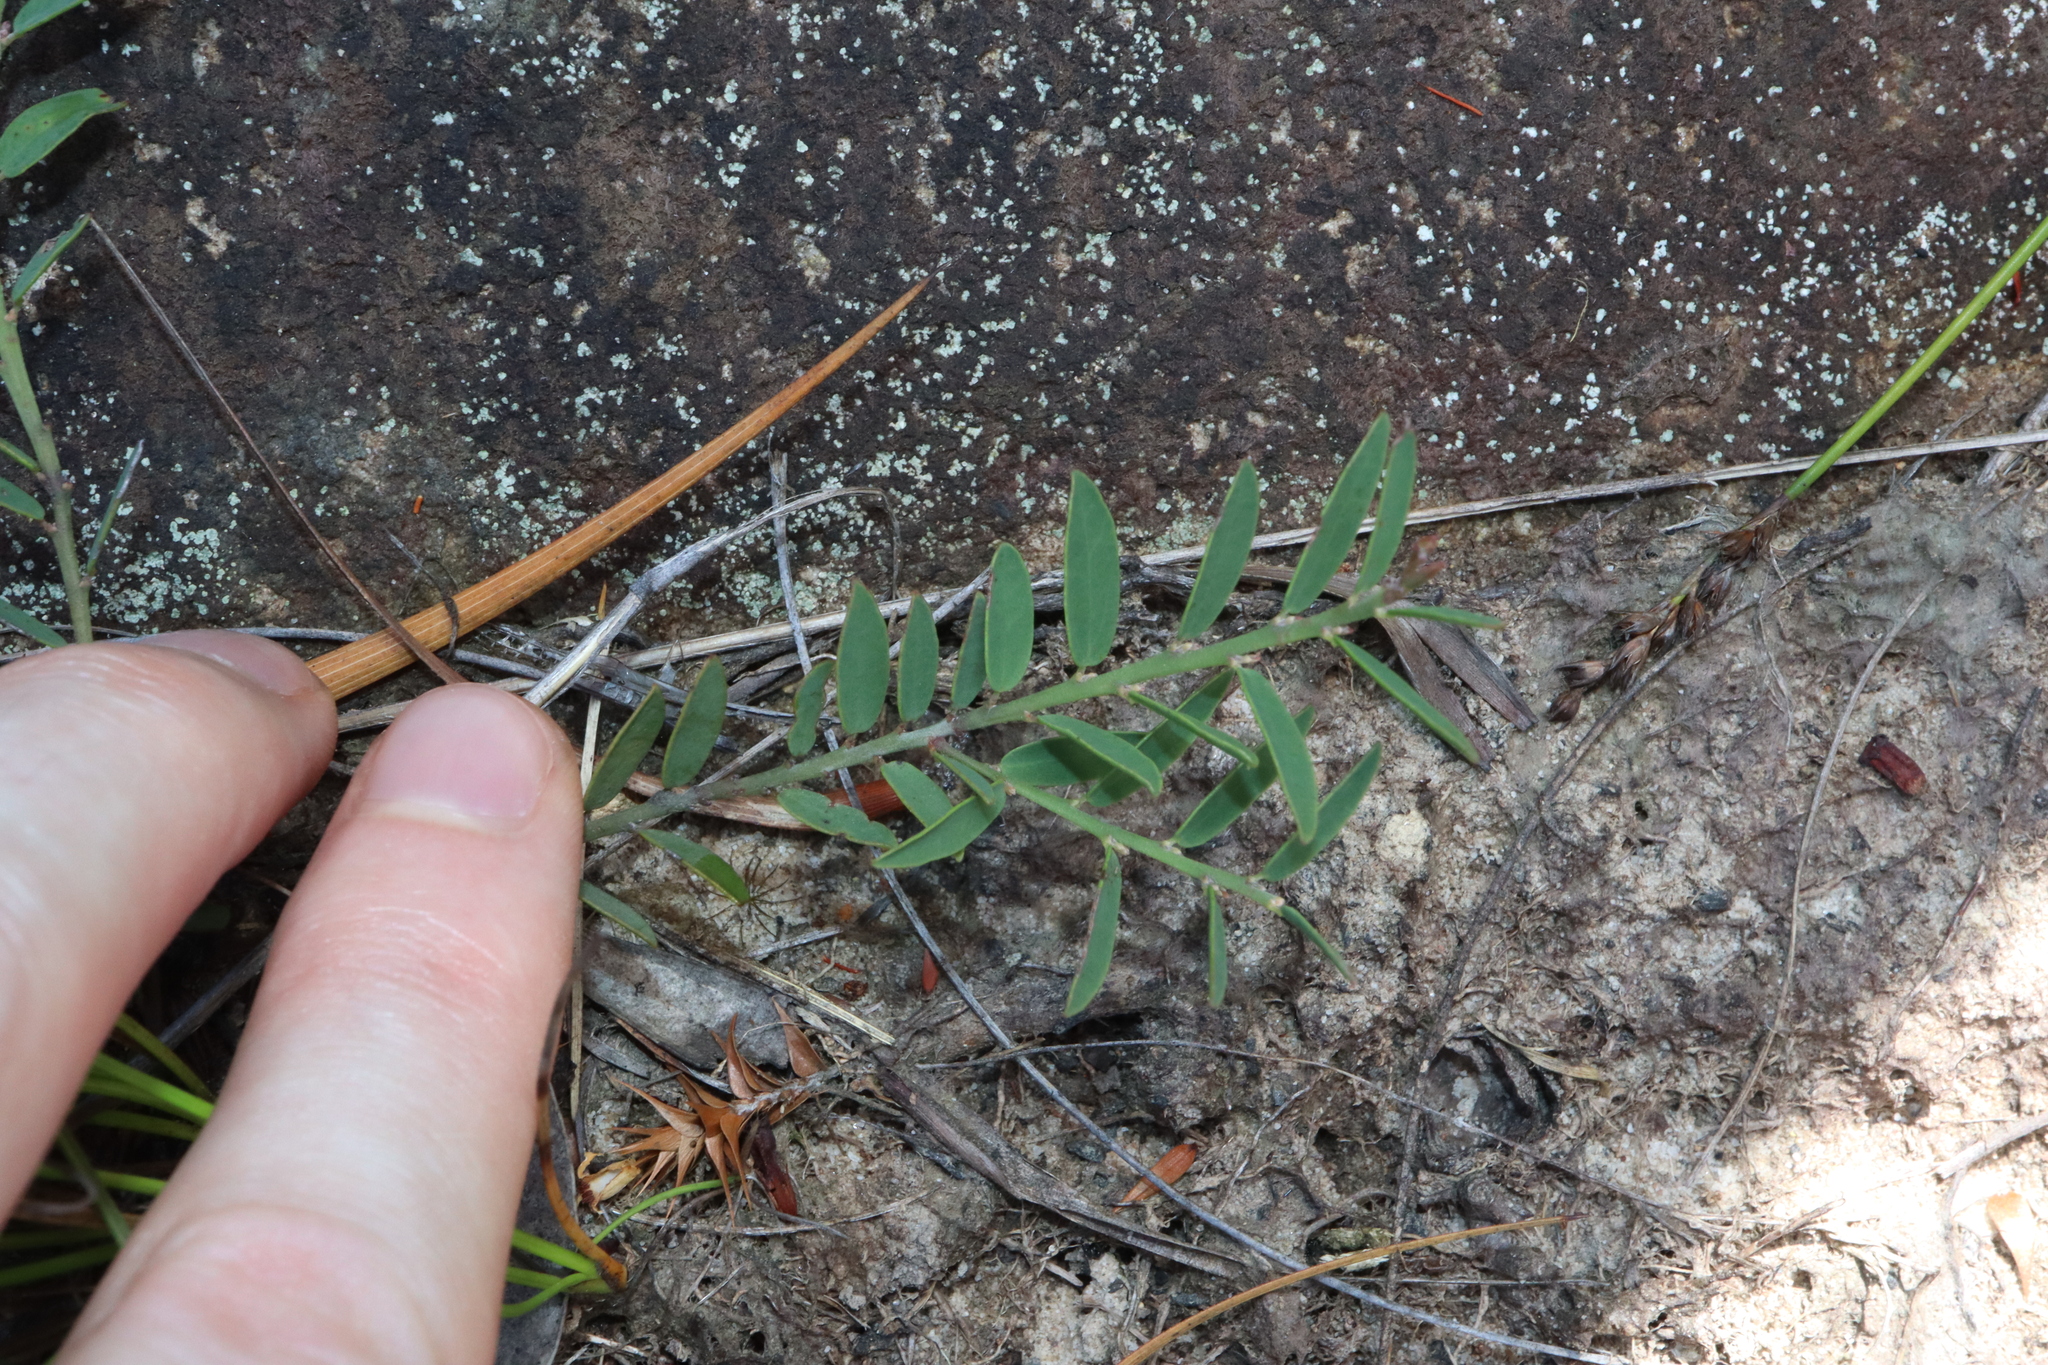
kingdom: Plantae
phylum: Tracheophyta
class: Magnoliopsida
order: Fabales
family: Fabaceae
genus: Bossiaea
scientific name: Bossiaea heterophylla
